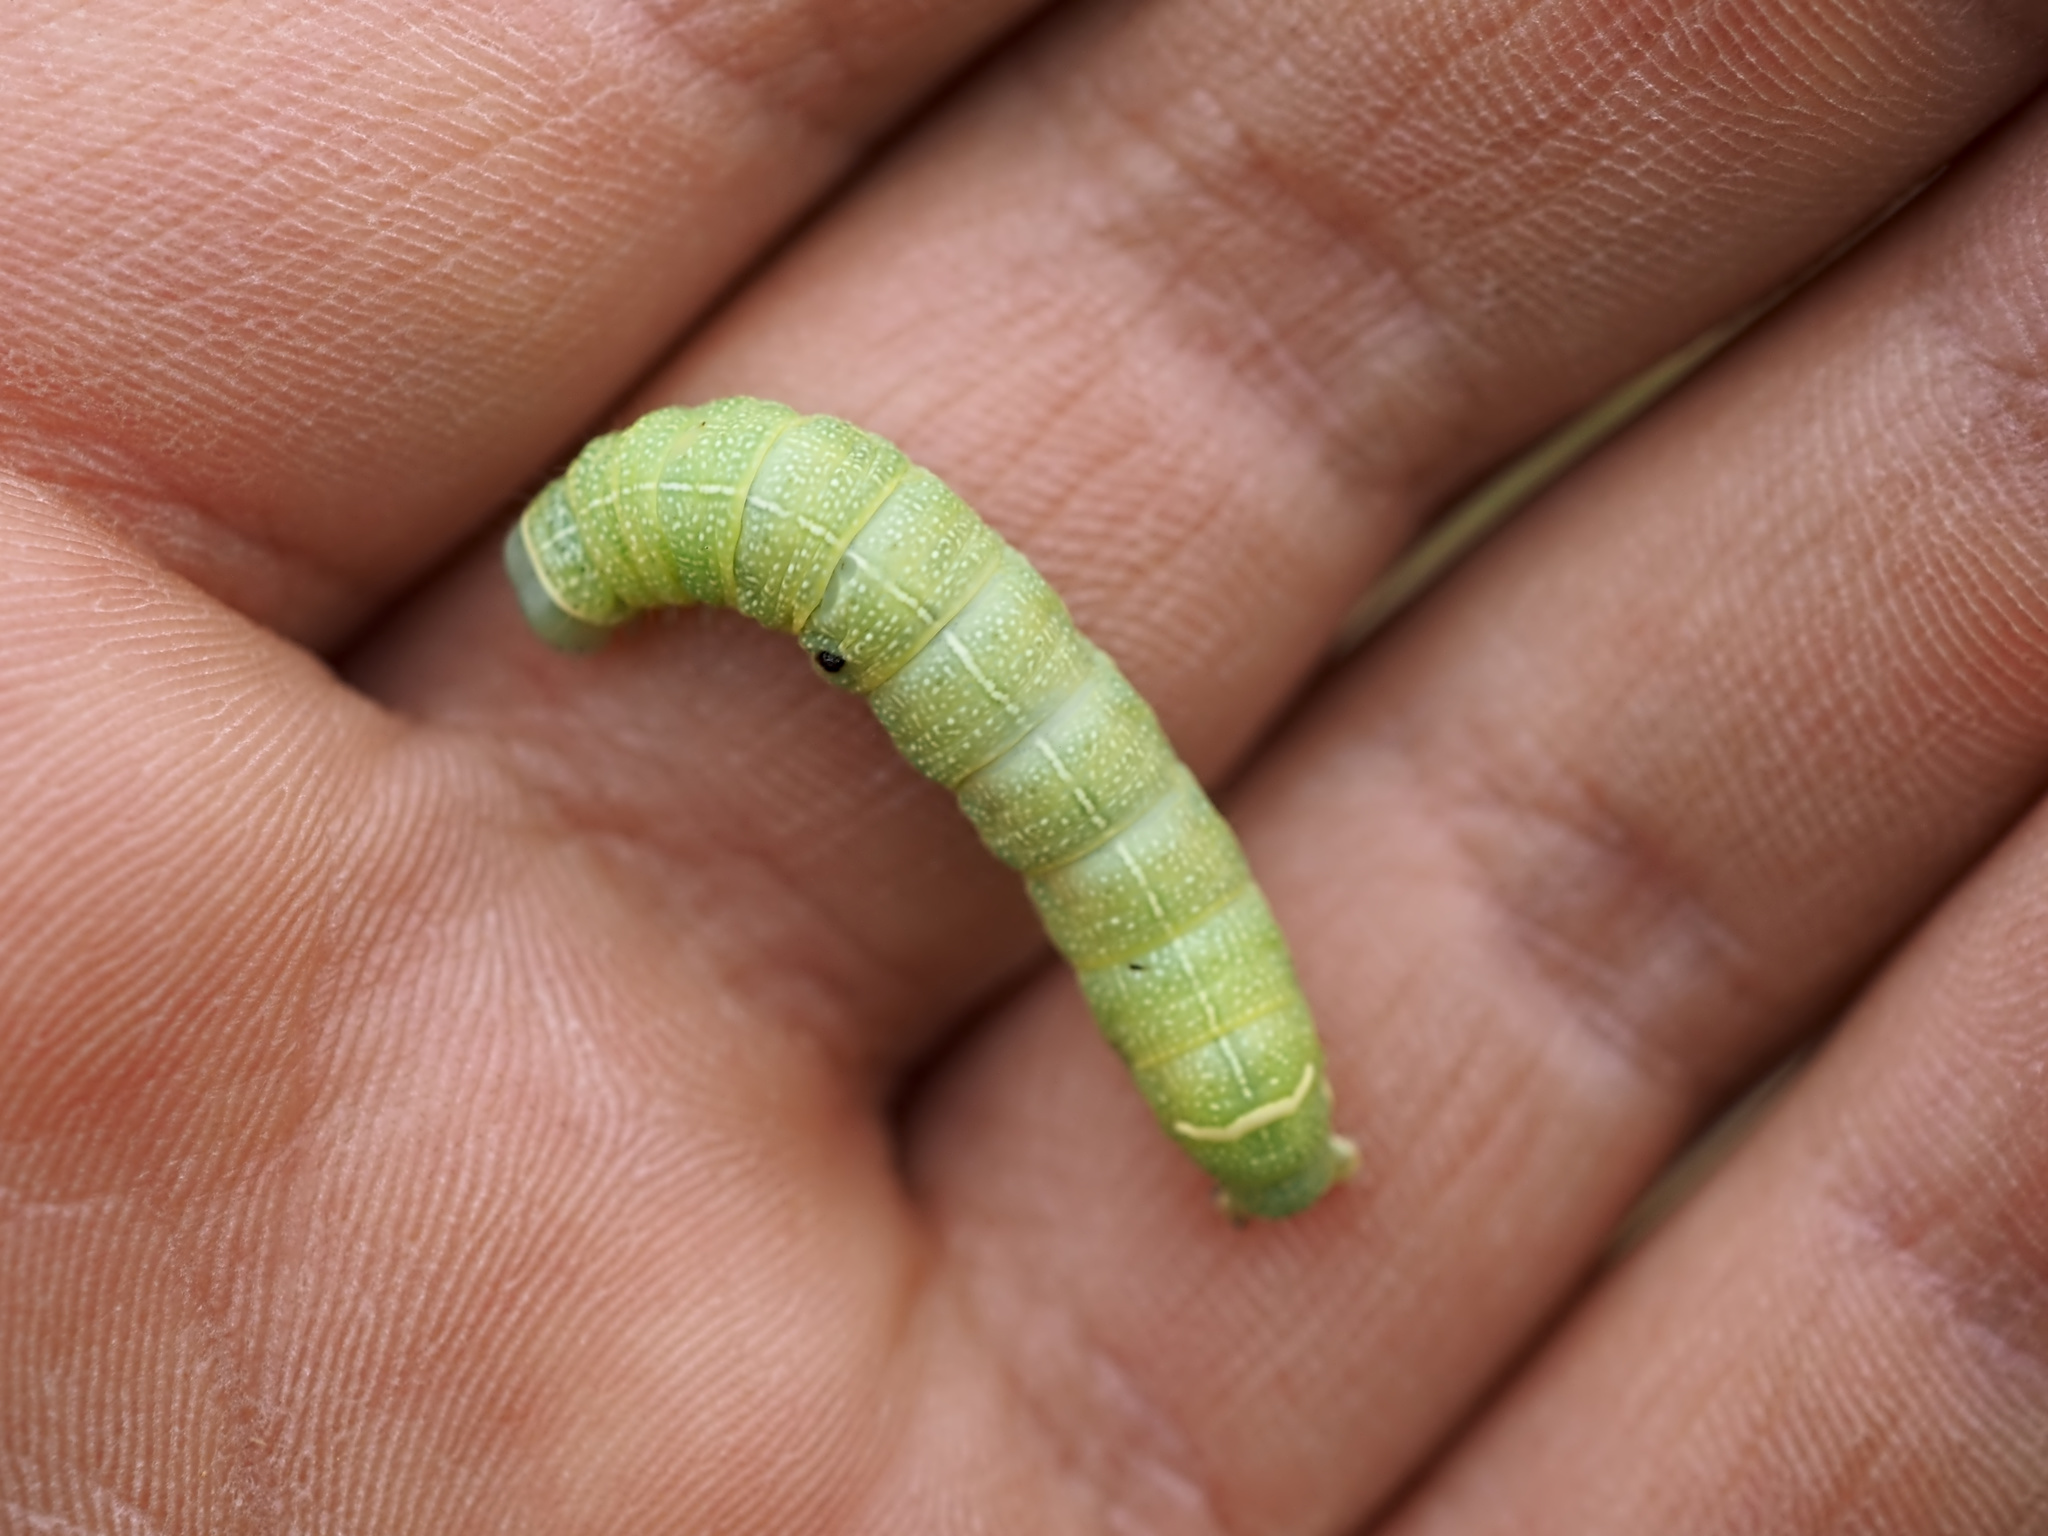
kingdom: Animalia
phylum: Arthropoda
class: Insecta
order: Lepidoptera
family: Noctuidae
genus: Orthosia
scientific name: Orthosia cerasi
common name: Common quaker
